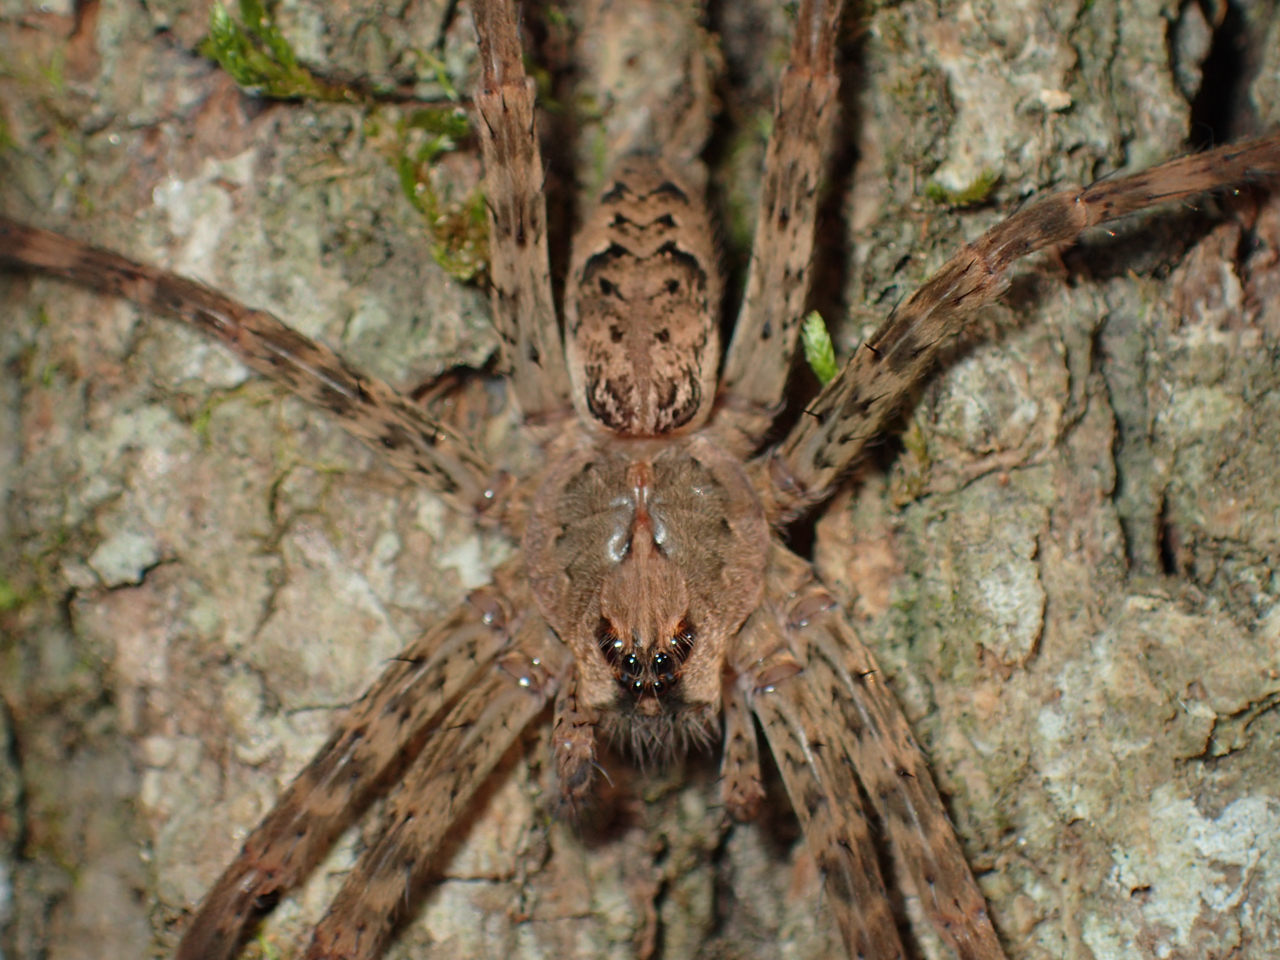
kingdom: Animalia
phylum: Arthropoda
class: Arachnida
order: Araneae
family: Pisauridae
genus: Dolomedes
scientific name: Dolomedes tenebrosus
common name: Dark fishing spider
